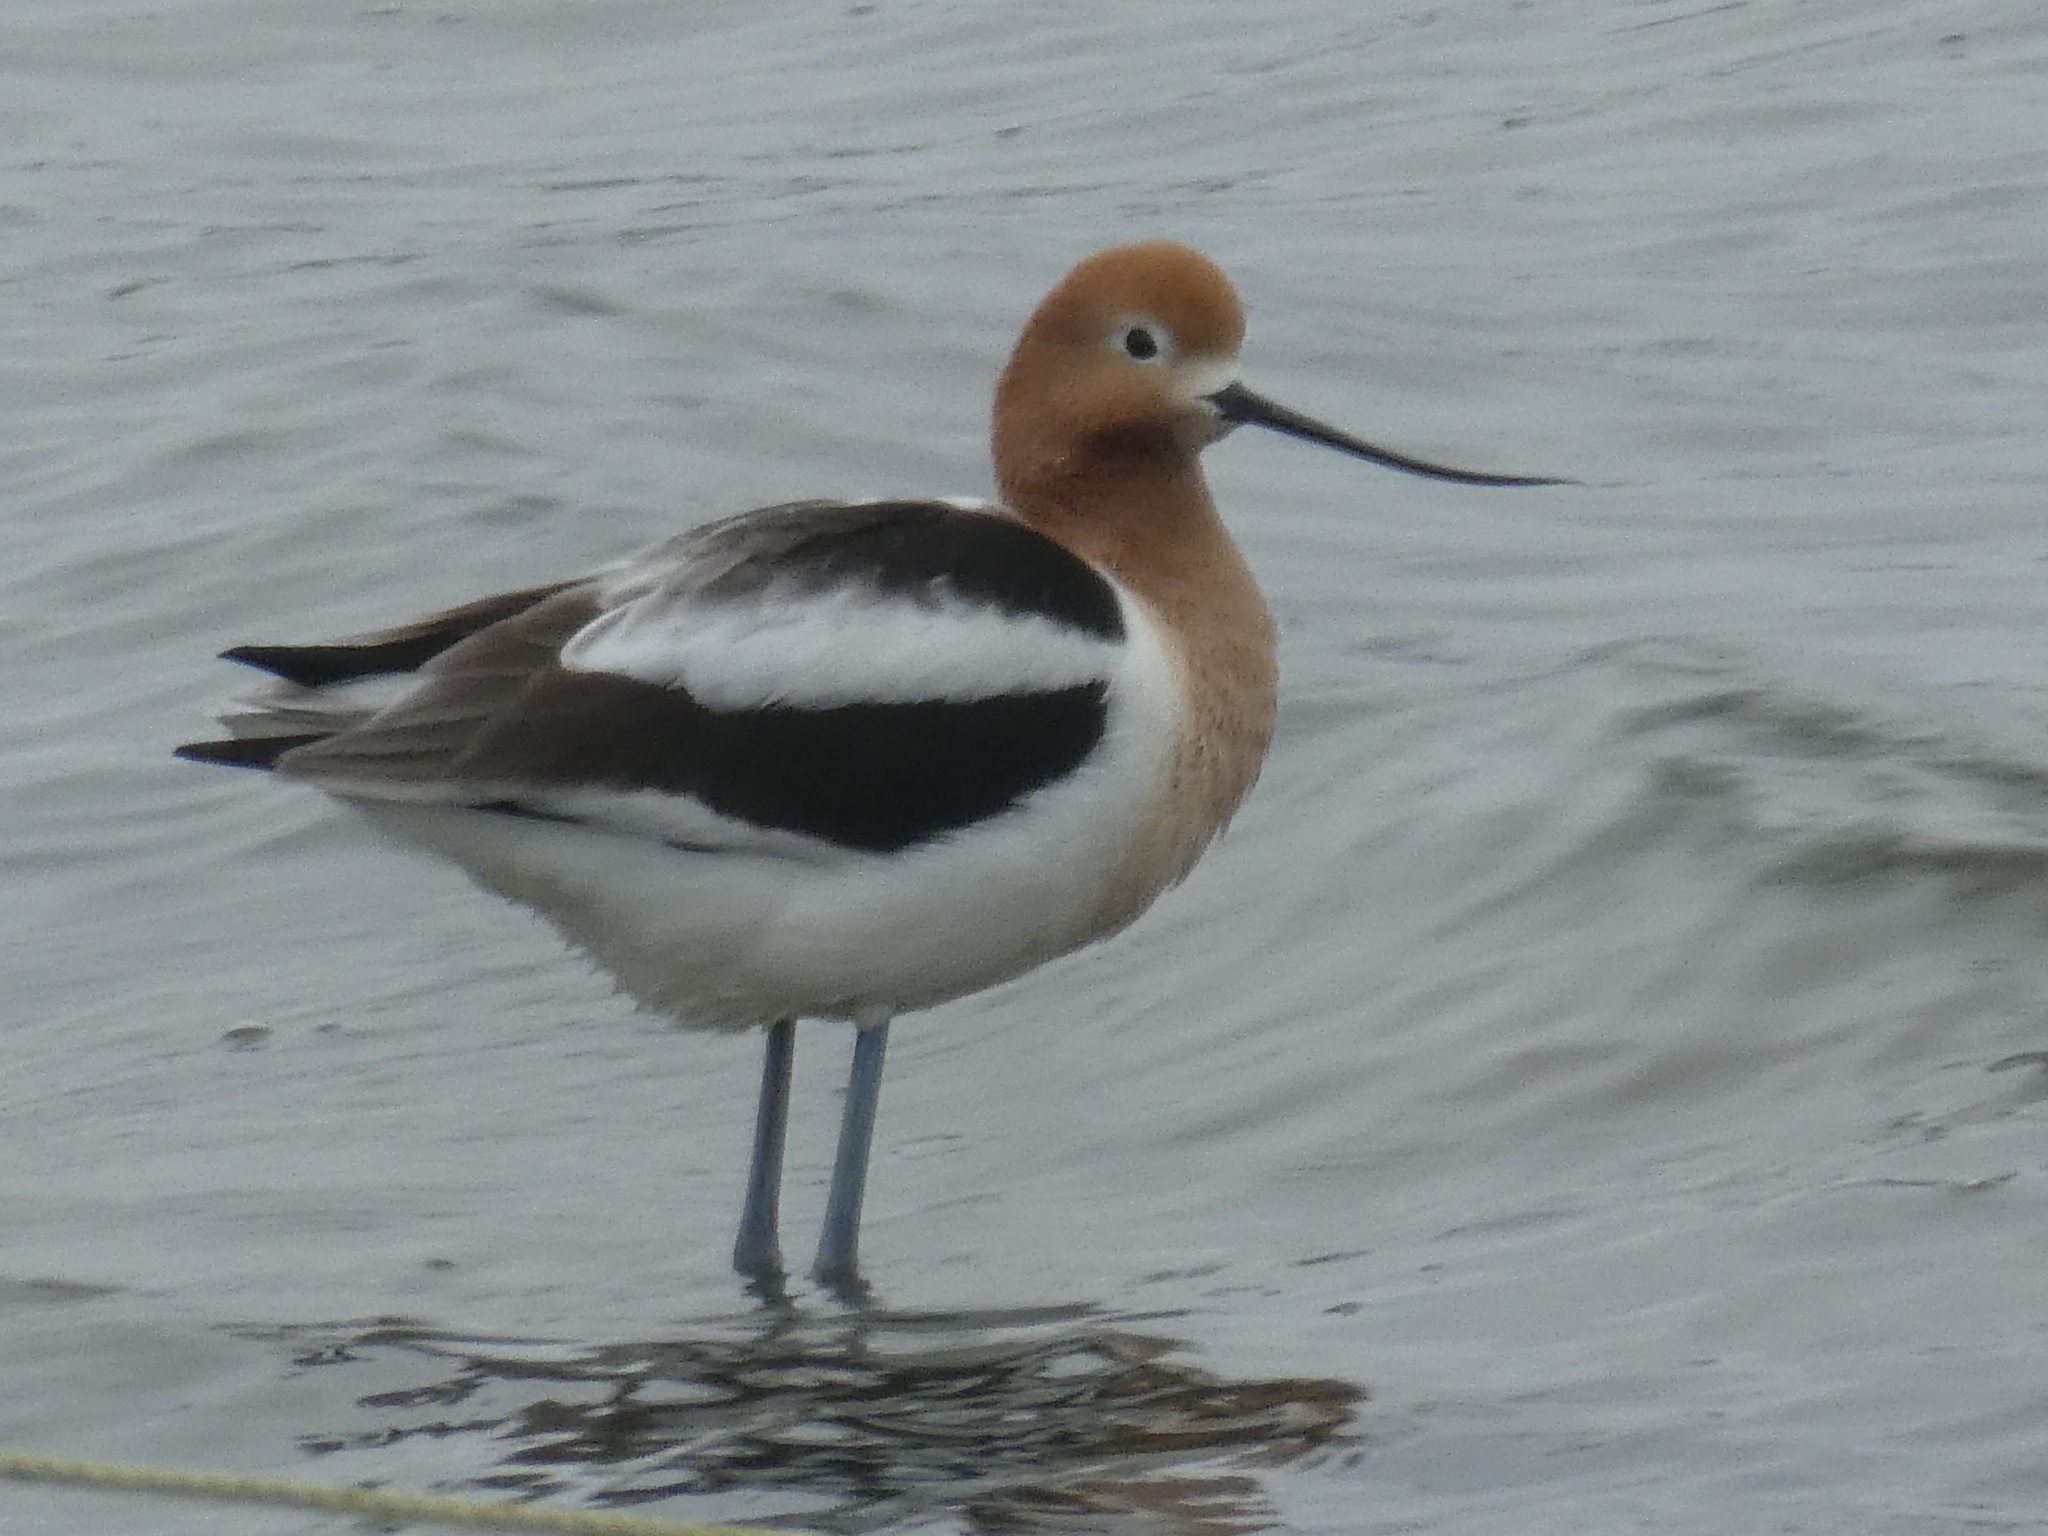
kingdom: Animalia
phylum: Chordata
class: Aves
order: Charadriiformes
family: Recurvirostridae
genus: Recurvirostra
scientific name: Recurvirostra americana
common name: American avocet
